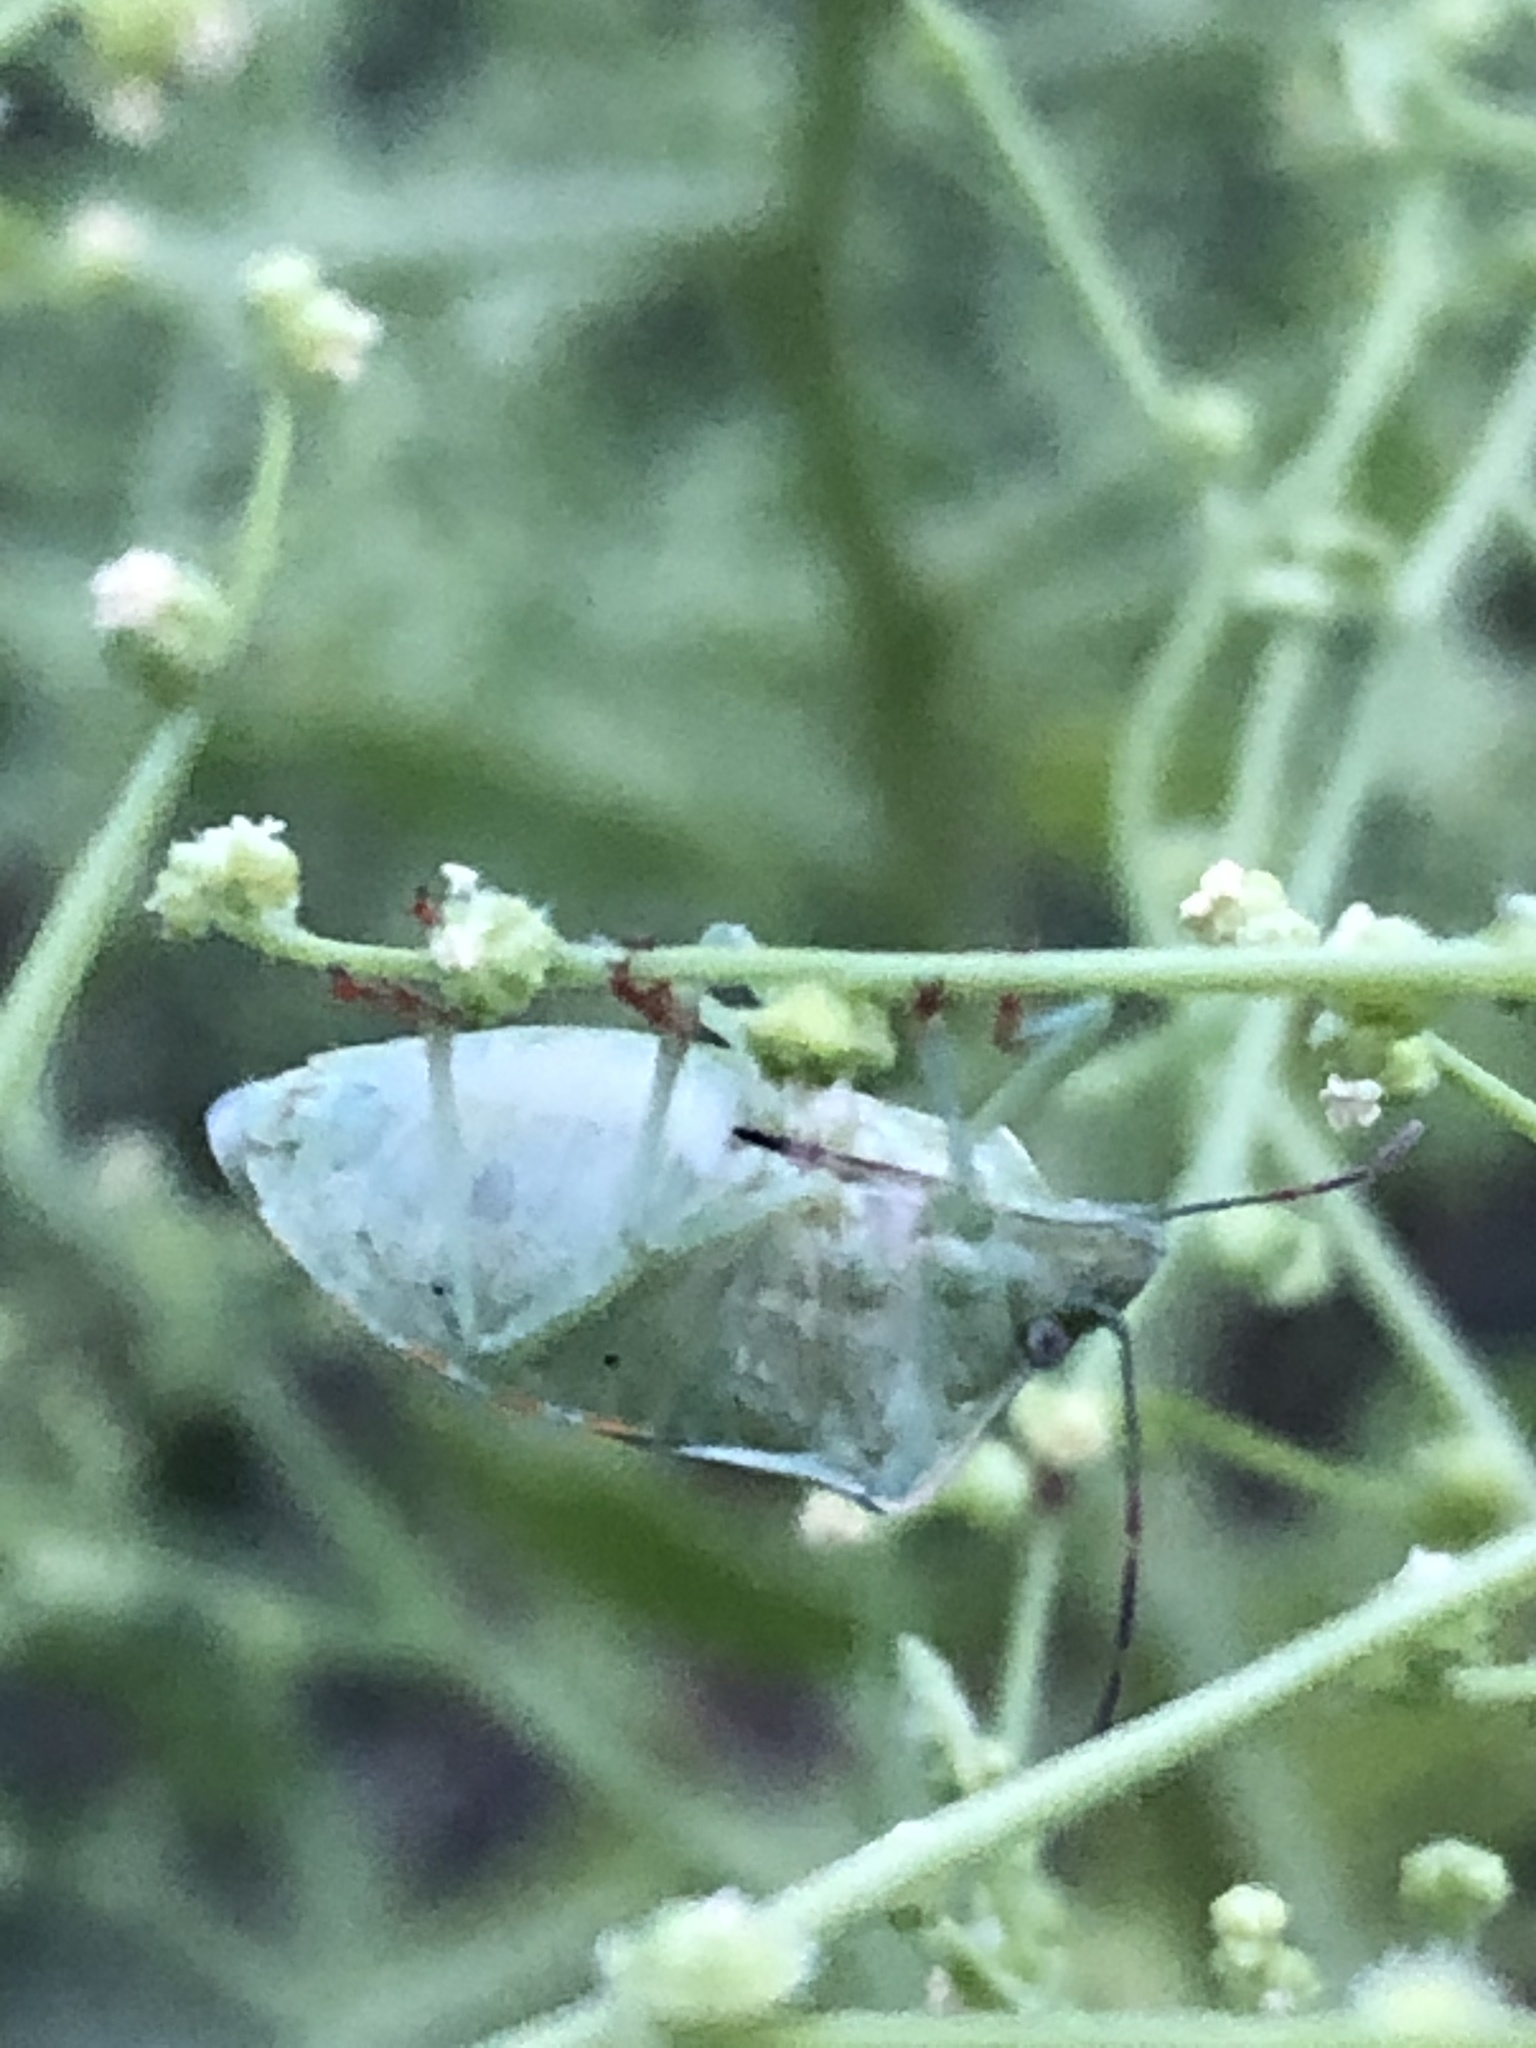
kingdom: Animalia
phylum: Arthropoda
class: Insecta
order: Hemiptera
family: Pentatomidae
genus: Thyanta
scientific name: Thyanta custator
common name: Stink bug
